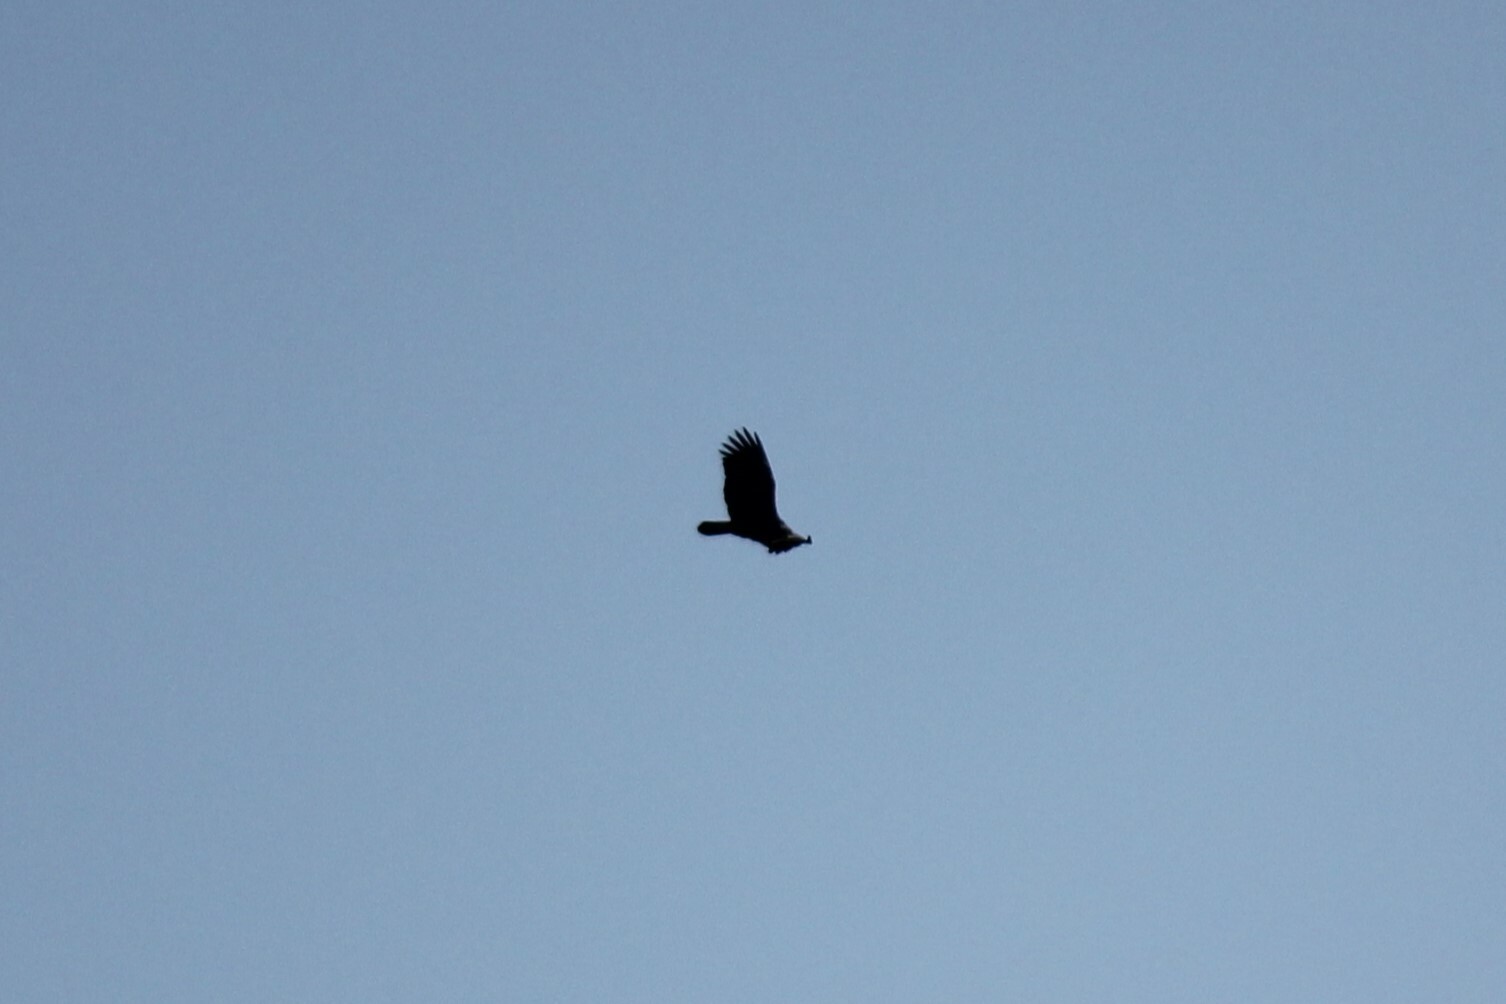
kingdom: Animalia
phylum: Chordata
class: Aves
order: Accipitriformes
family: Cathartidae
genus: Cathartes
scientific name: Cathartes aura
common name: Turkey vulture
